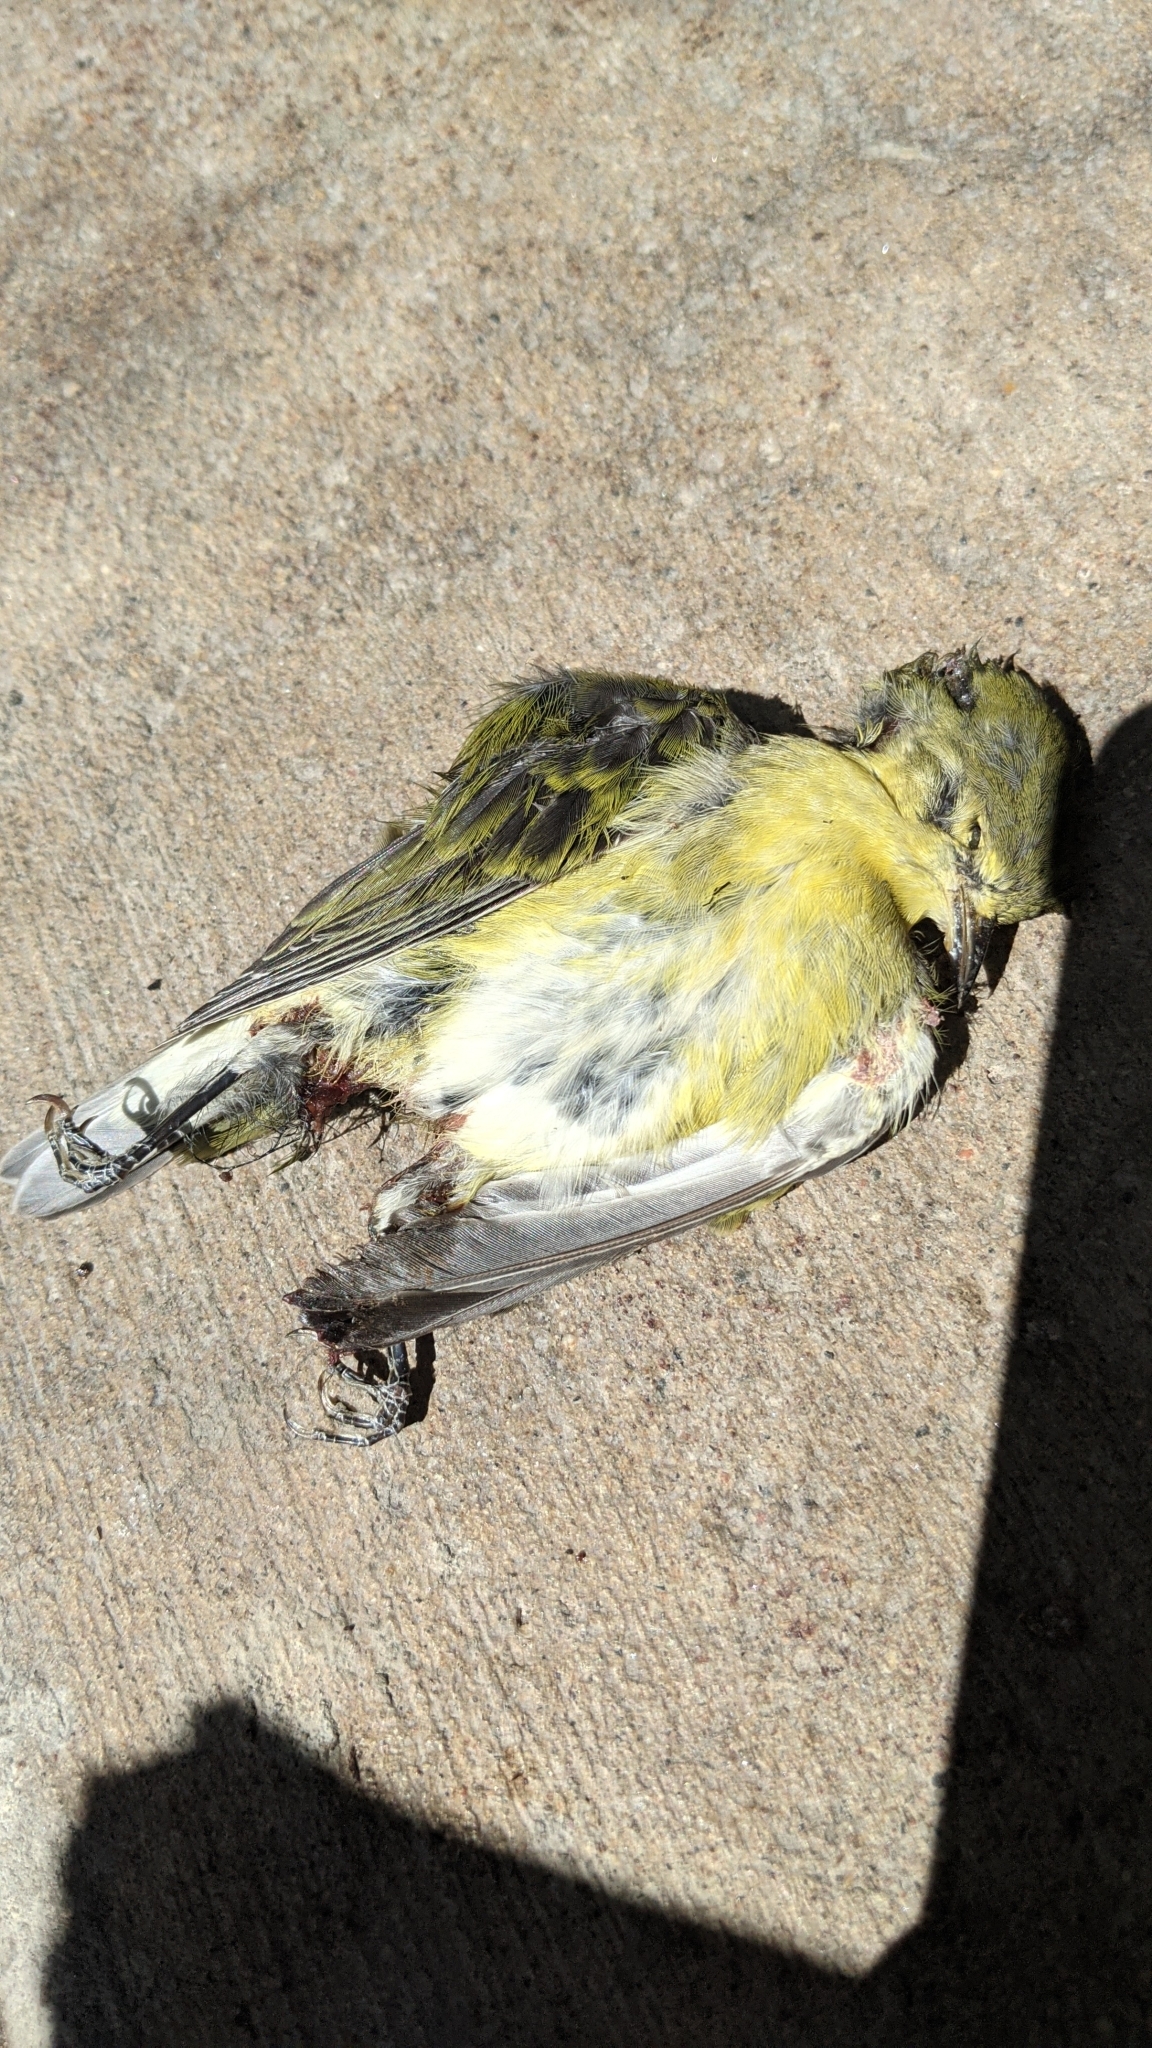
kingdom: Animalia
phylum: Chordata
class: Aves
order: Passeriformes
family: Parulidae
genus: Leiothlypis
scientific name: Leiothlypis peregrina
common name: Tennessee warbler
